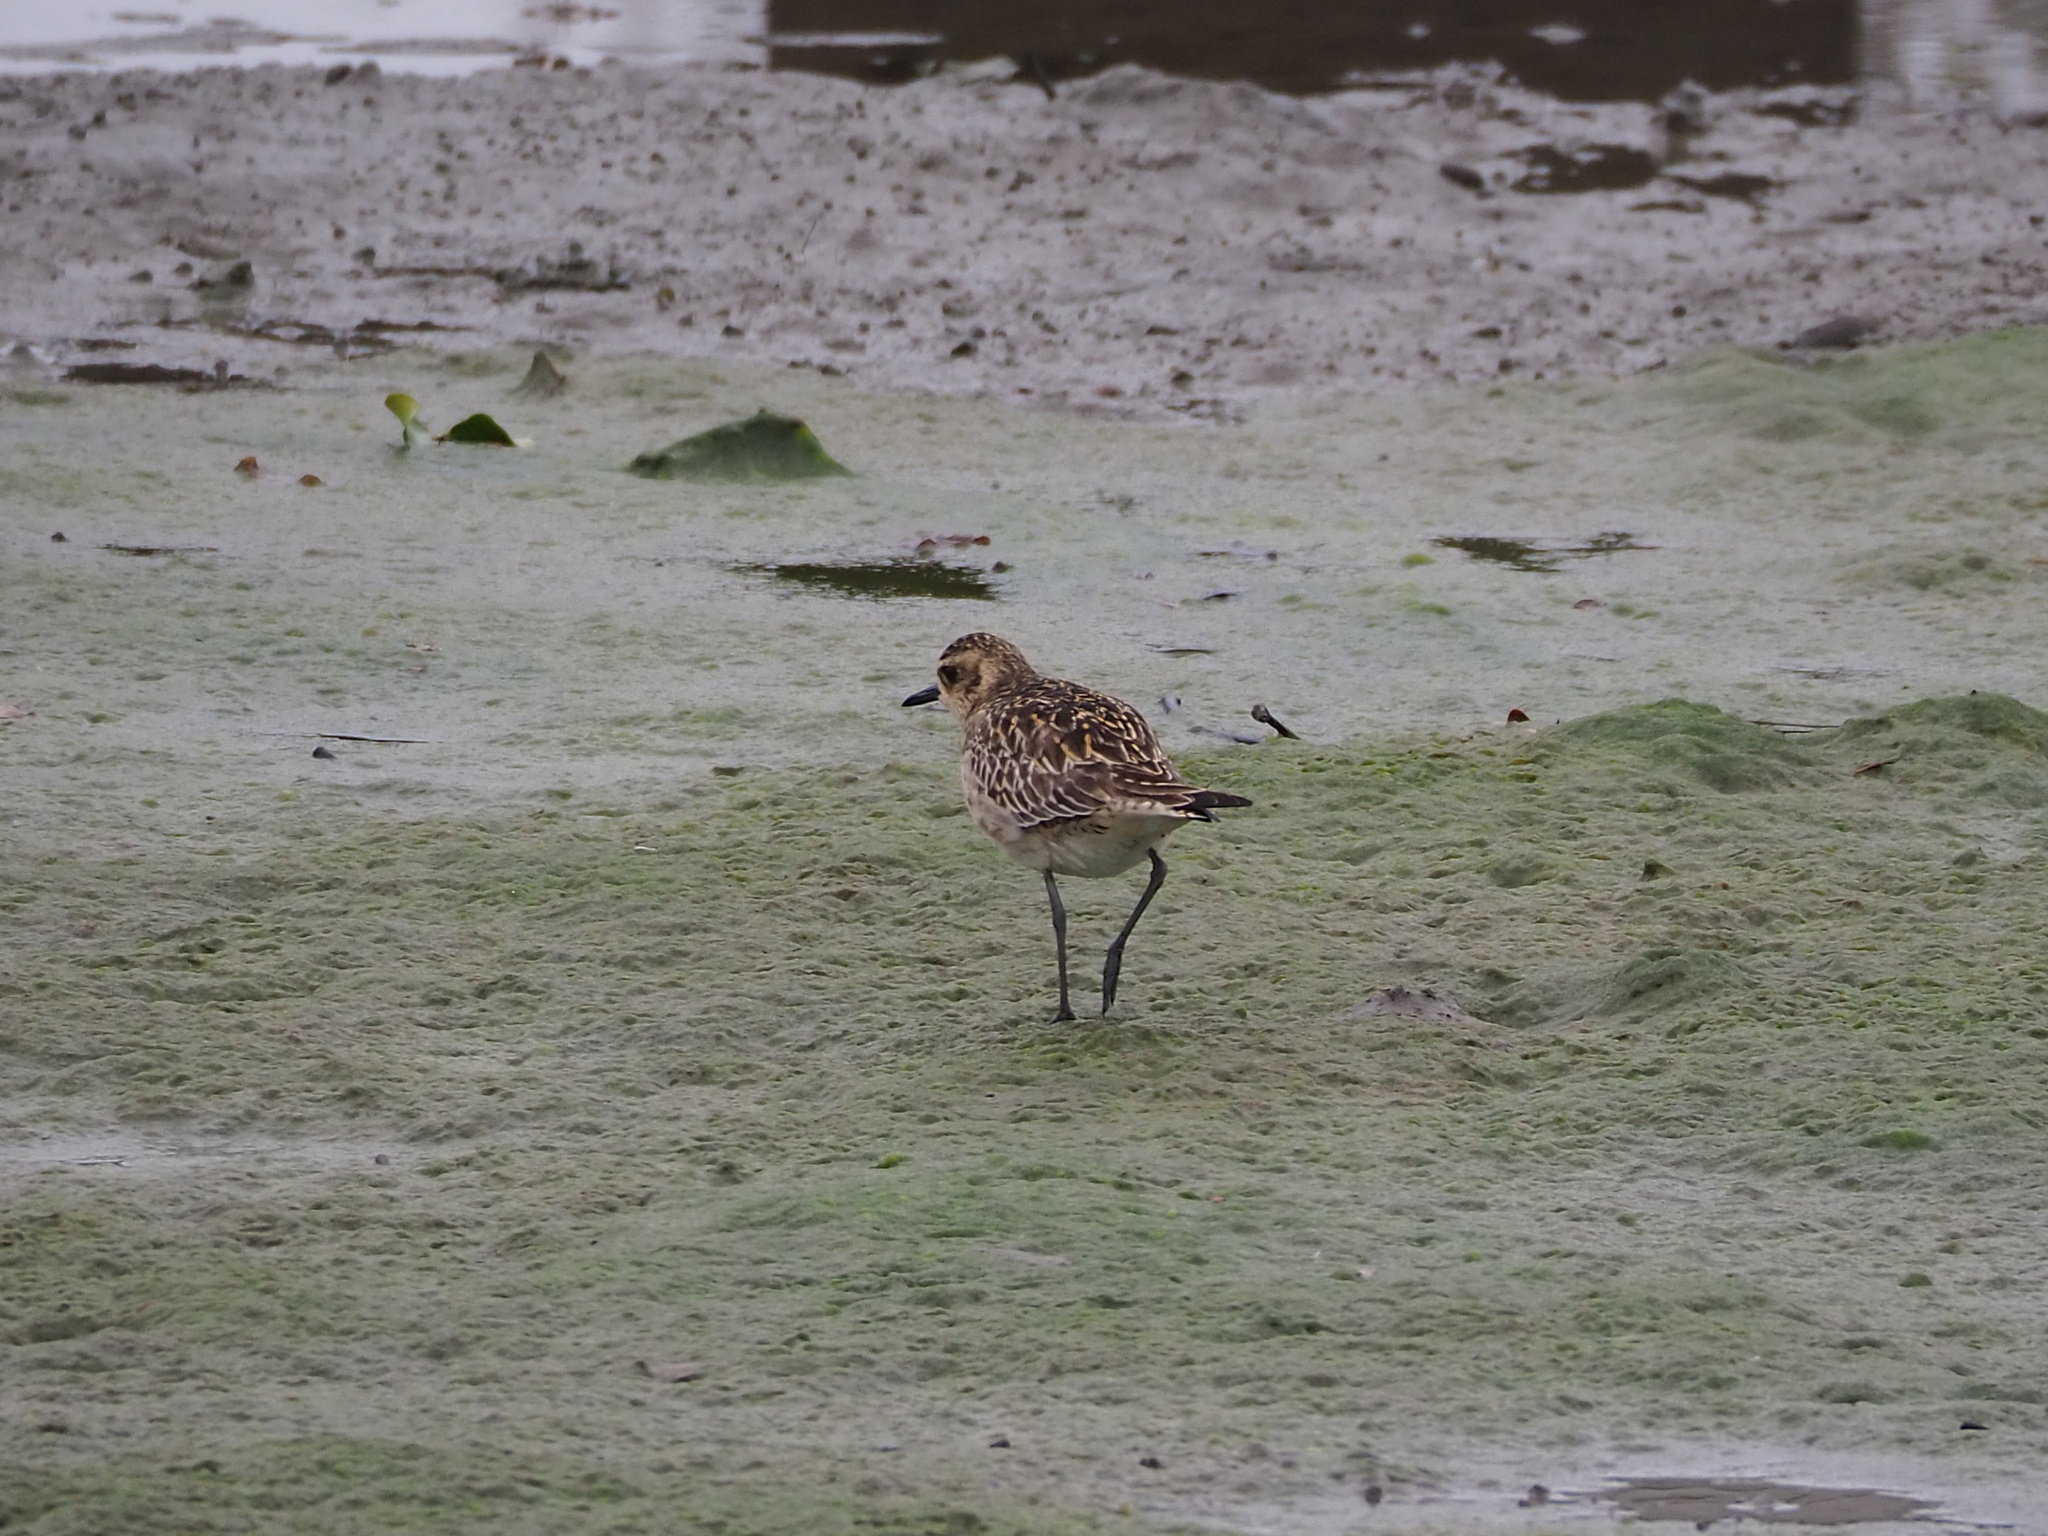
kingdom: Animalia
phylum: Chordata
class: Aves
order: Charadriiformes
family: Charadriidae
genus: Pluvialis
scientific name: Pluvialis fulva
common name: Pacific golden plover
